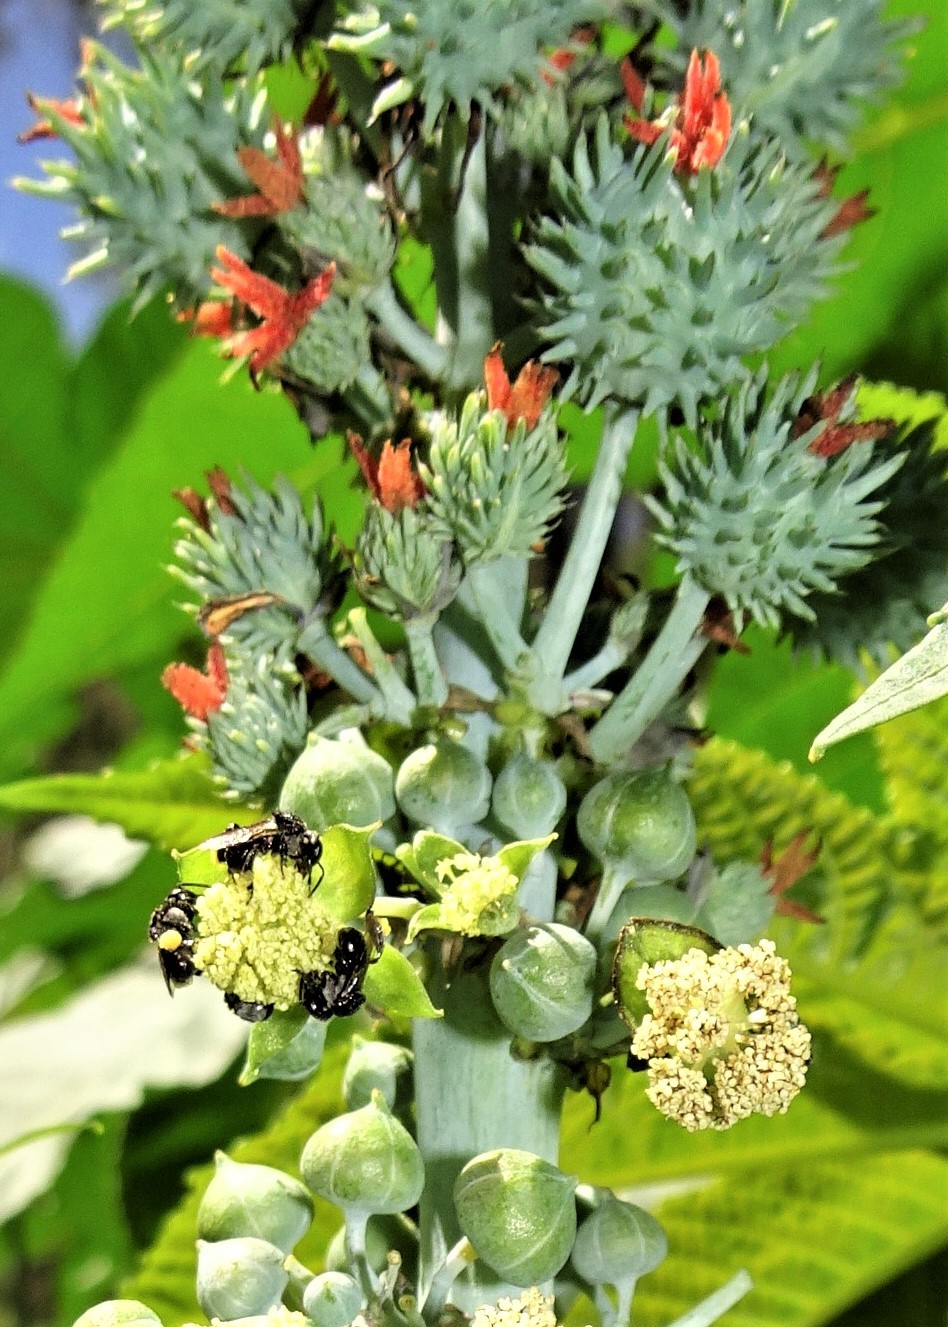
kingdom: Plantae
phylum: Tracheophyta
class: Magnoliopsida
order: Malpighiales
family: Euphorbiaceae
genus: Ricinus
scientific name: Ricinus communis
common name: Castor-oil-plant
